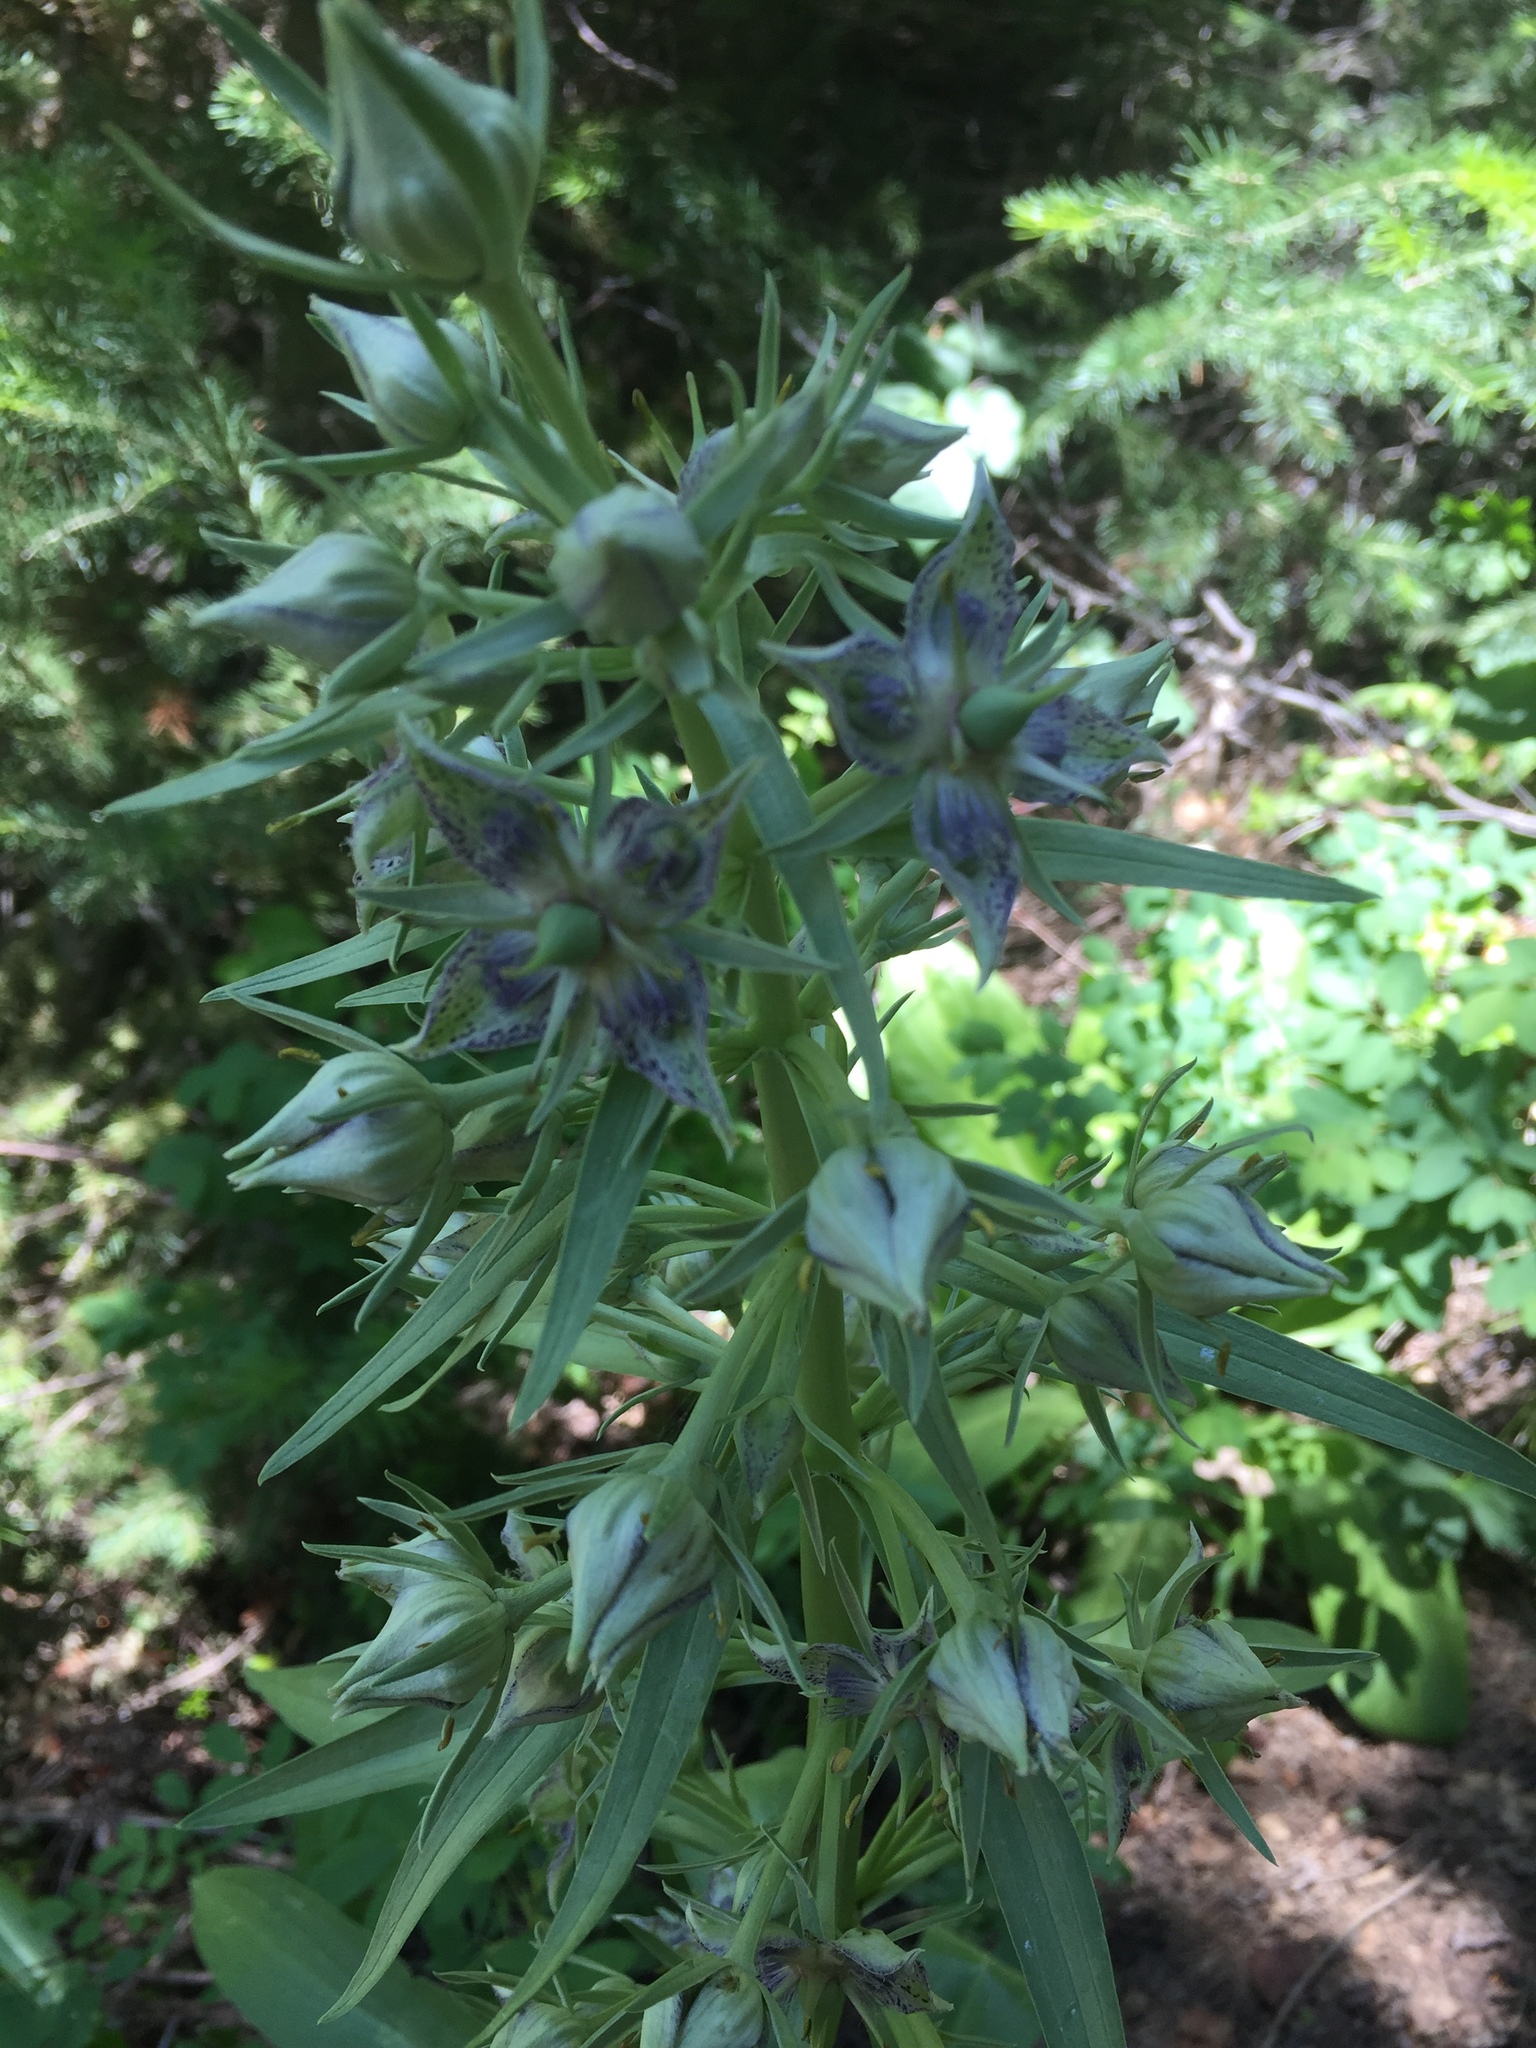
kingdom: Plantae
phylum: Tracheophyta
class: Magnoliopsida
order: Gentianales
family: Gentianaceae
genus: Frasera
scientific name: Frasera speciosa
